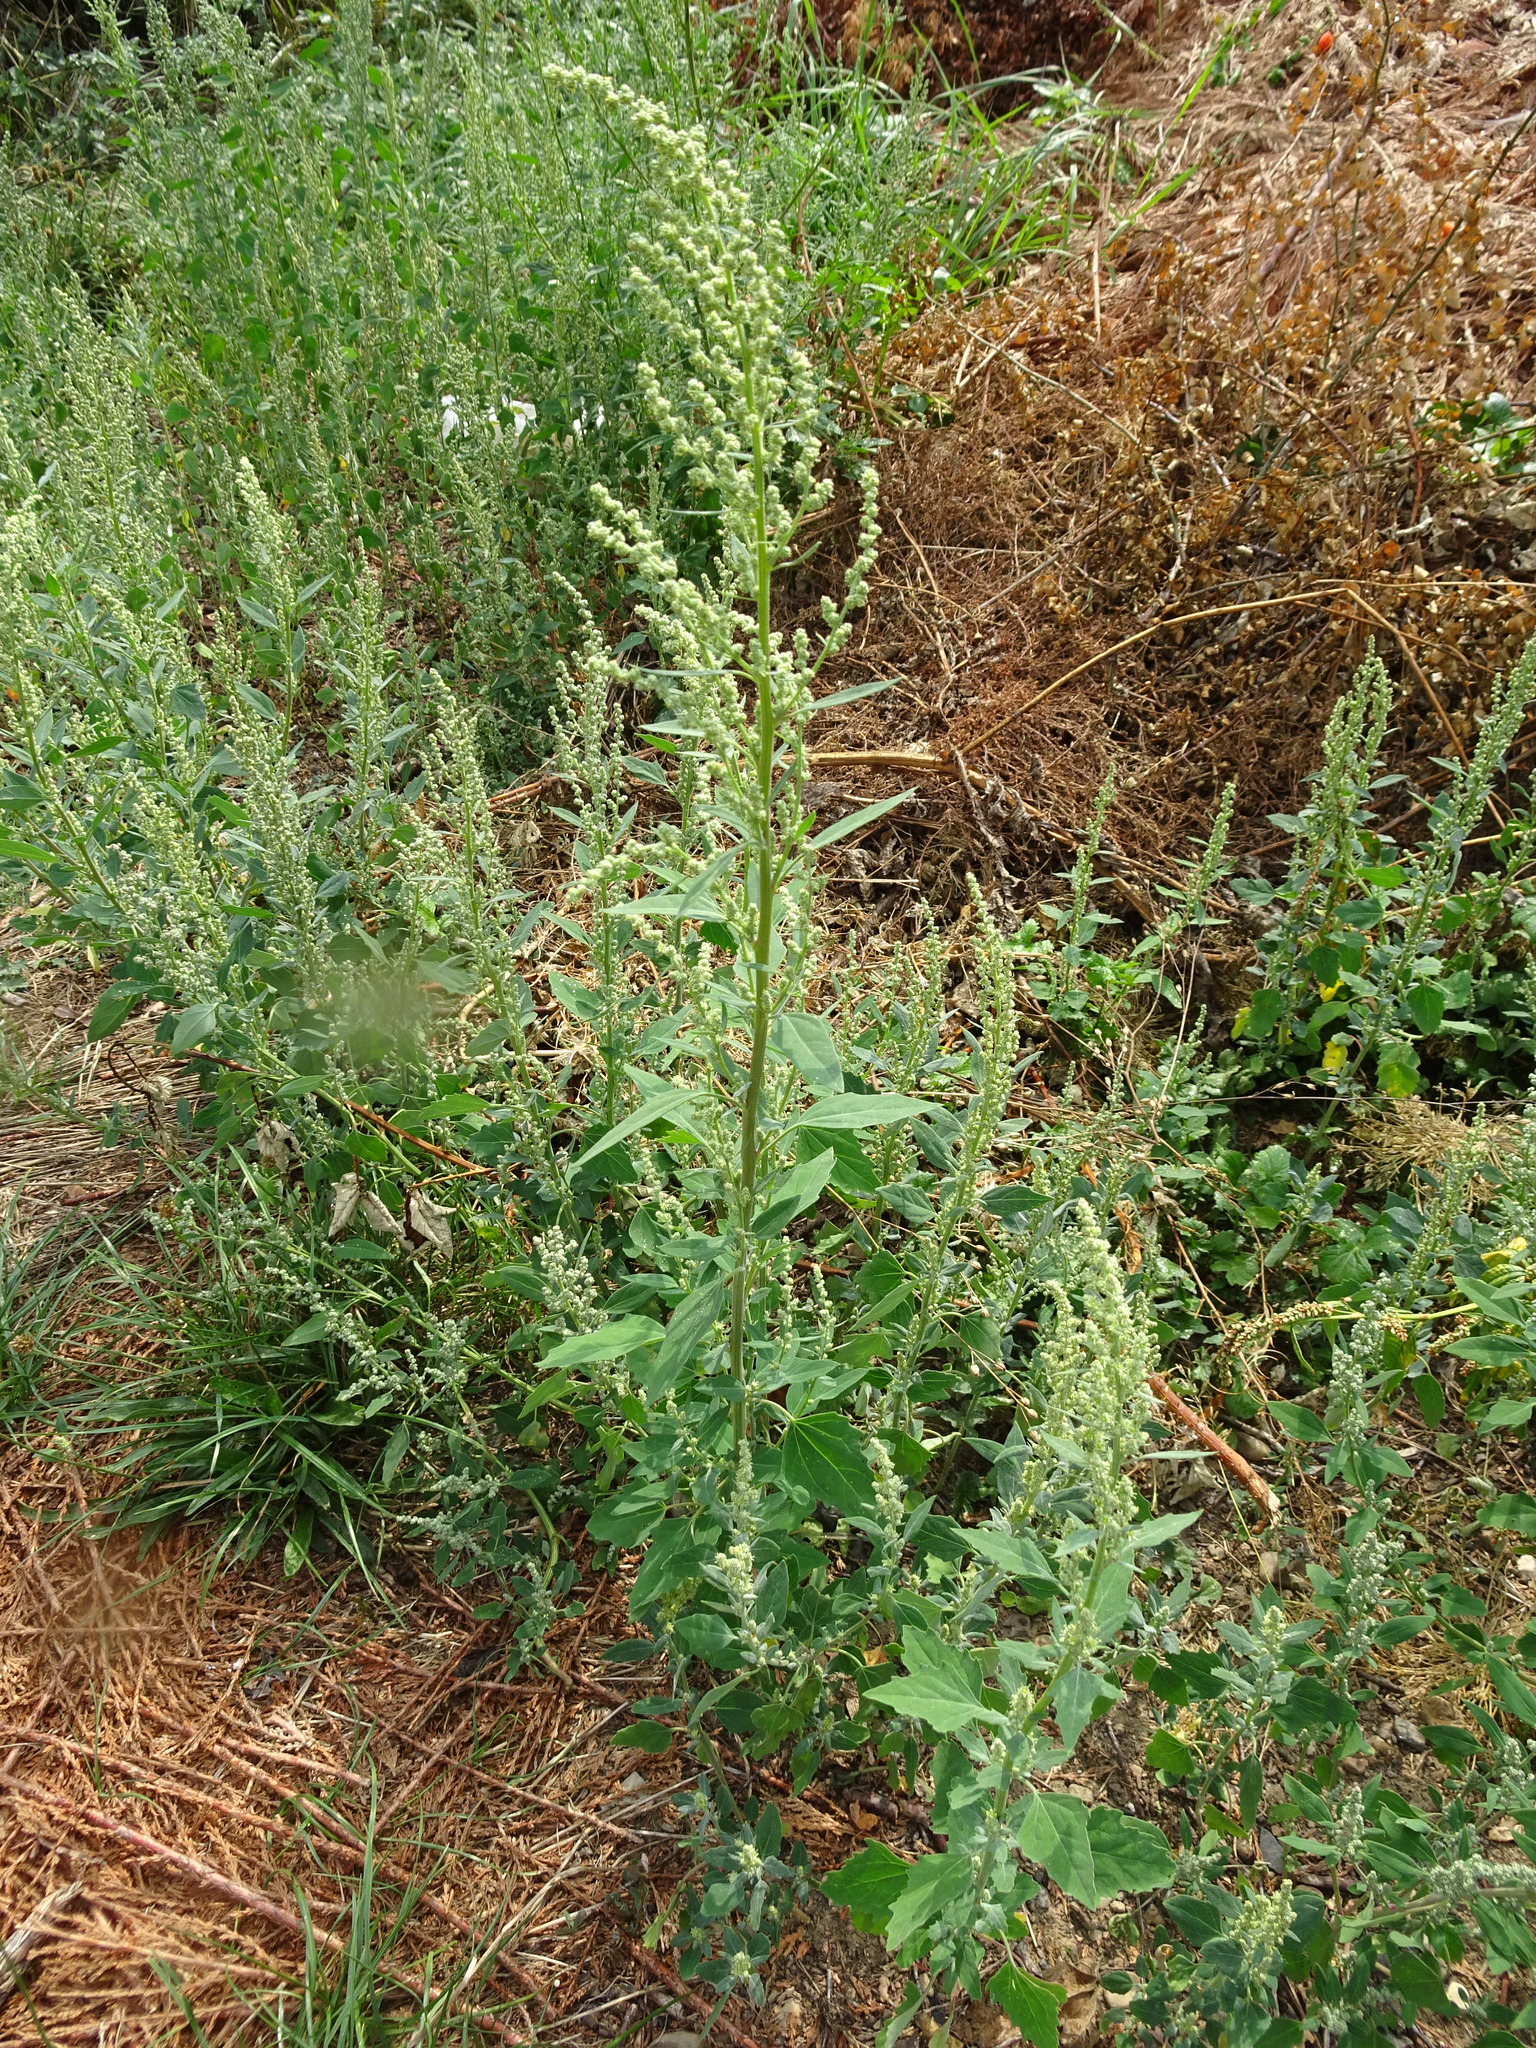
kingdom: Plantae
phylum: Tracheophyta
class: Magnoliopsida
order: Caryophyllales
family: Amaranthaceae
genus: Chenopodium
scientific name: Chenopodium album
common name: Fat-hen
